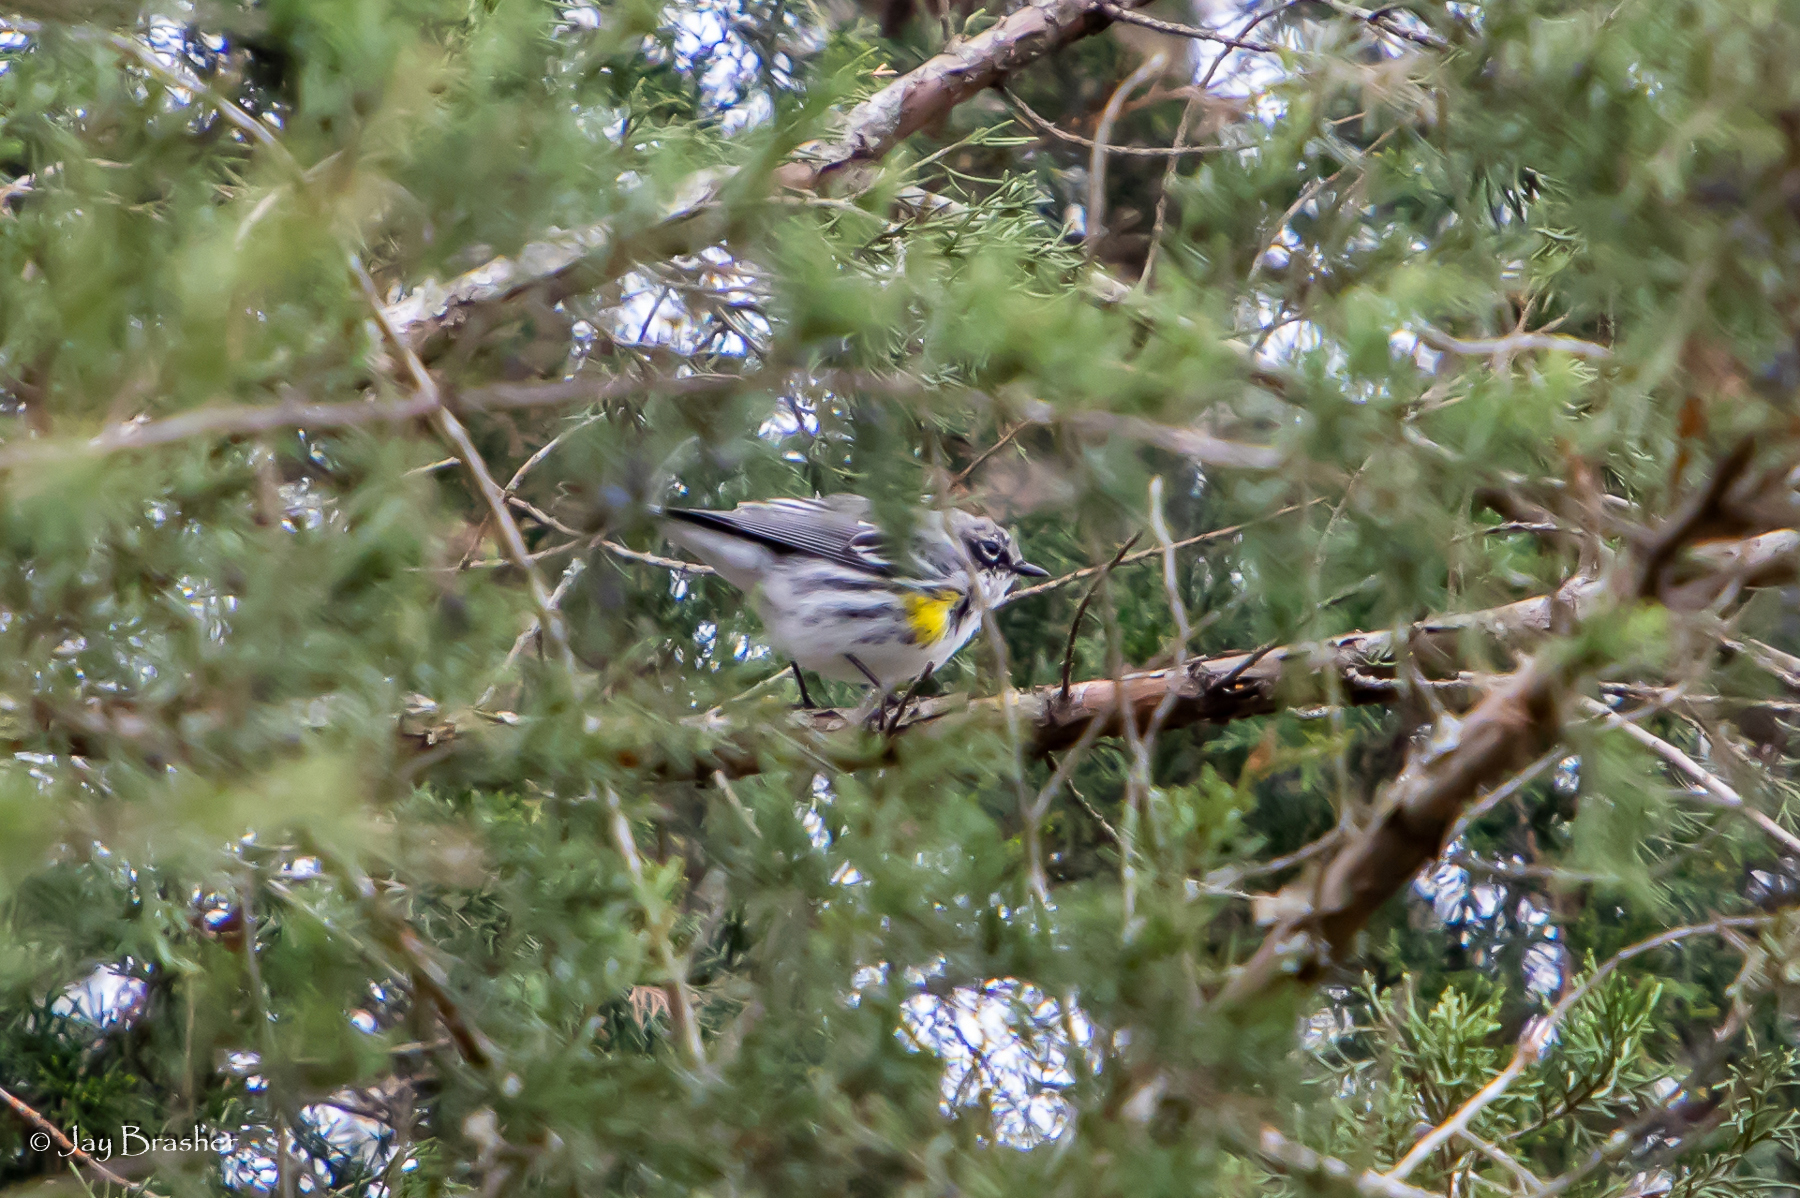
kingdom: Animalia
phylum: Chordata
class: Aves
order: Passeriformes
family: Parulidae
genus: Setophaga
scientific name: Setophaga coronata
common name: Myrtle warbler
